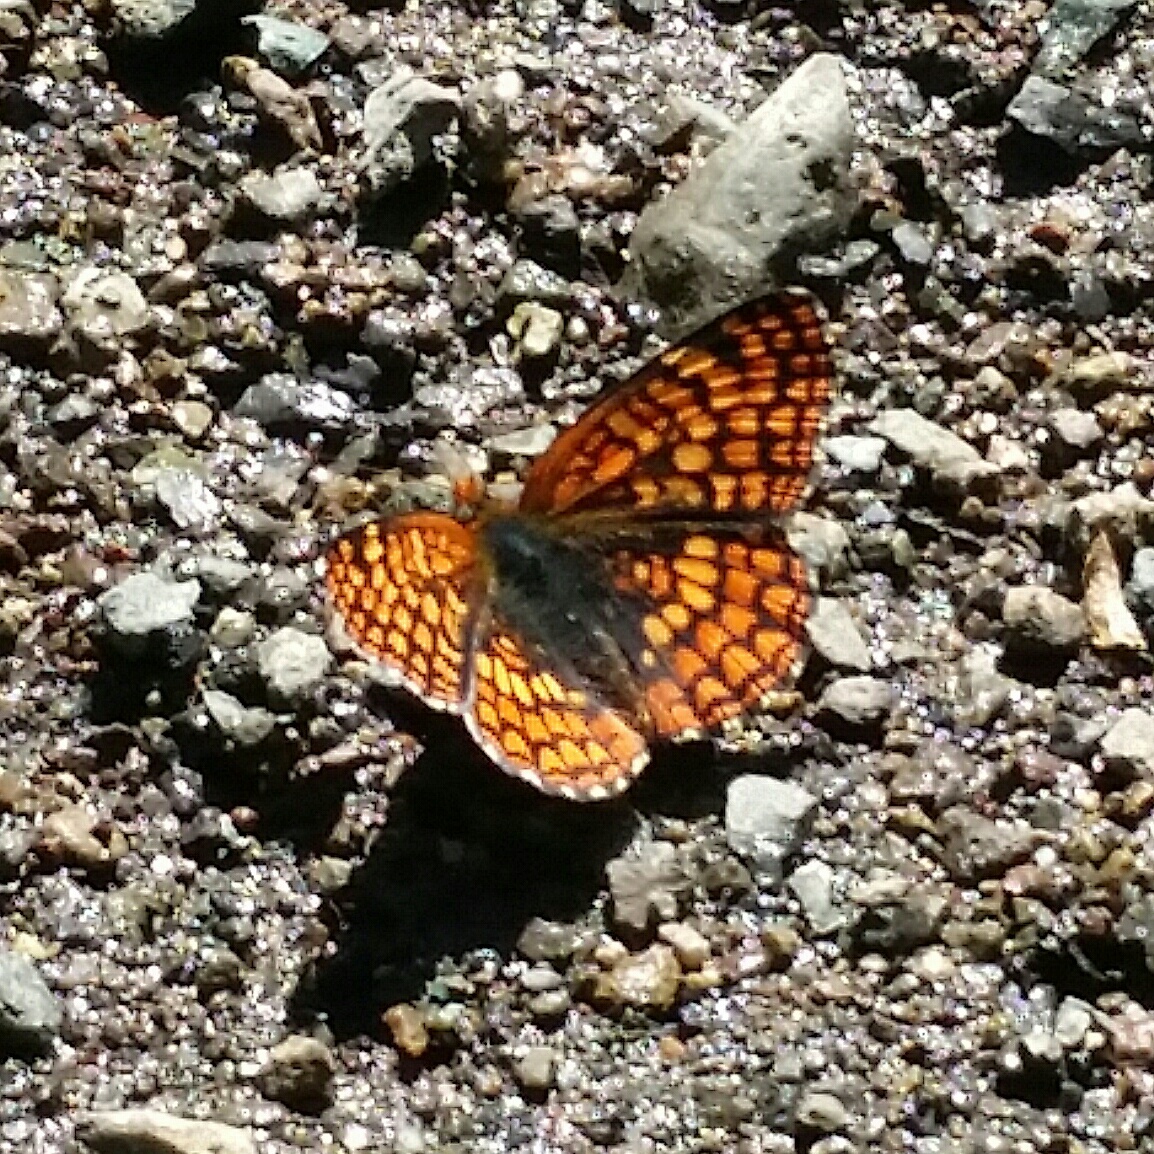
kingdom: Animalia
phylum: Arthropoda
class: Insecta
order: Lepidoptera
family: Nymphalidae
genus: Chlosyne
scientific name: Chlosyne palla
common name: Northern checkerspot
